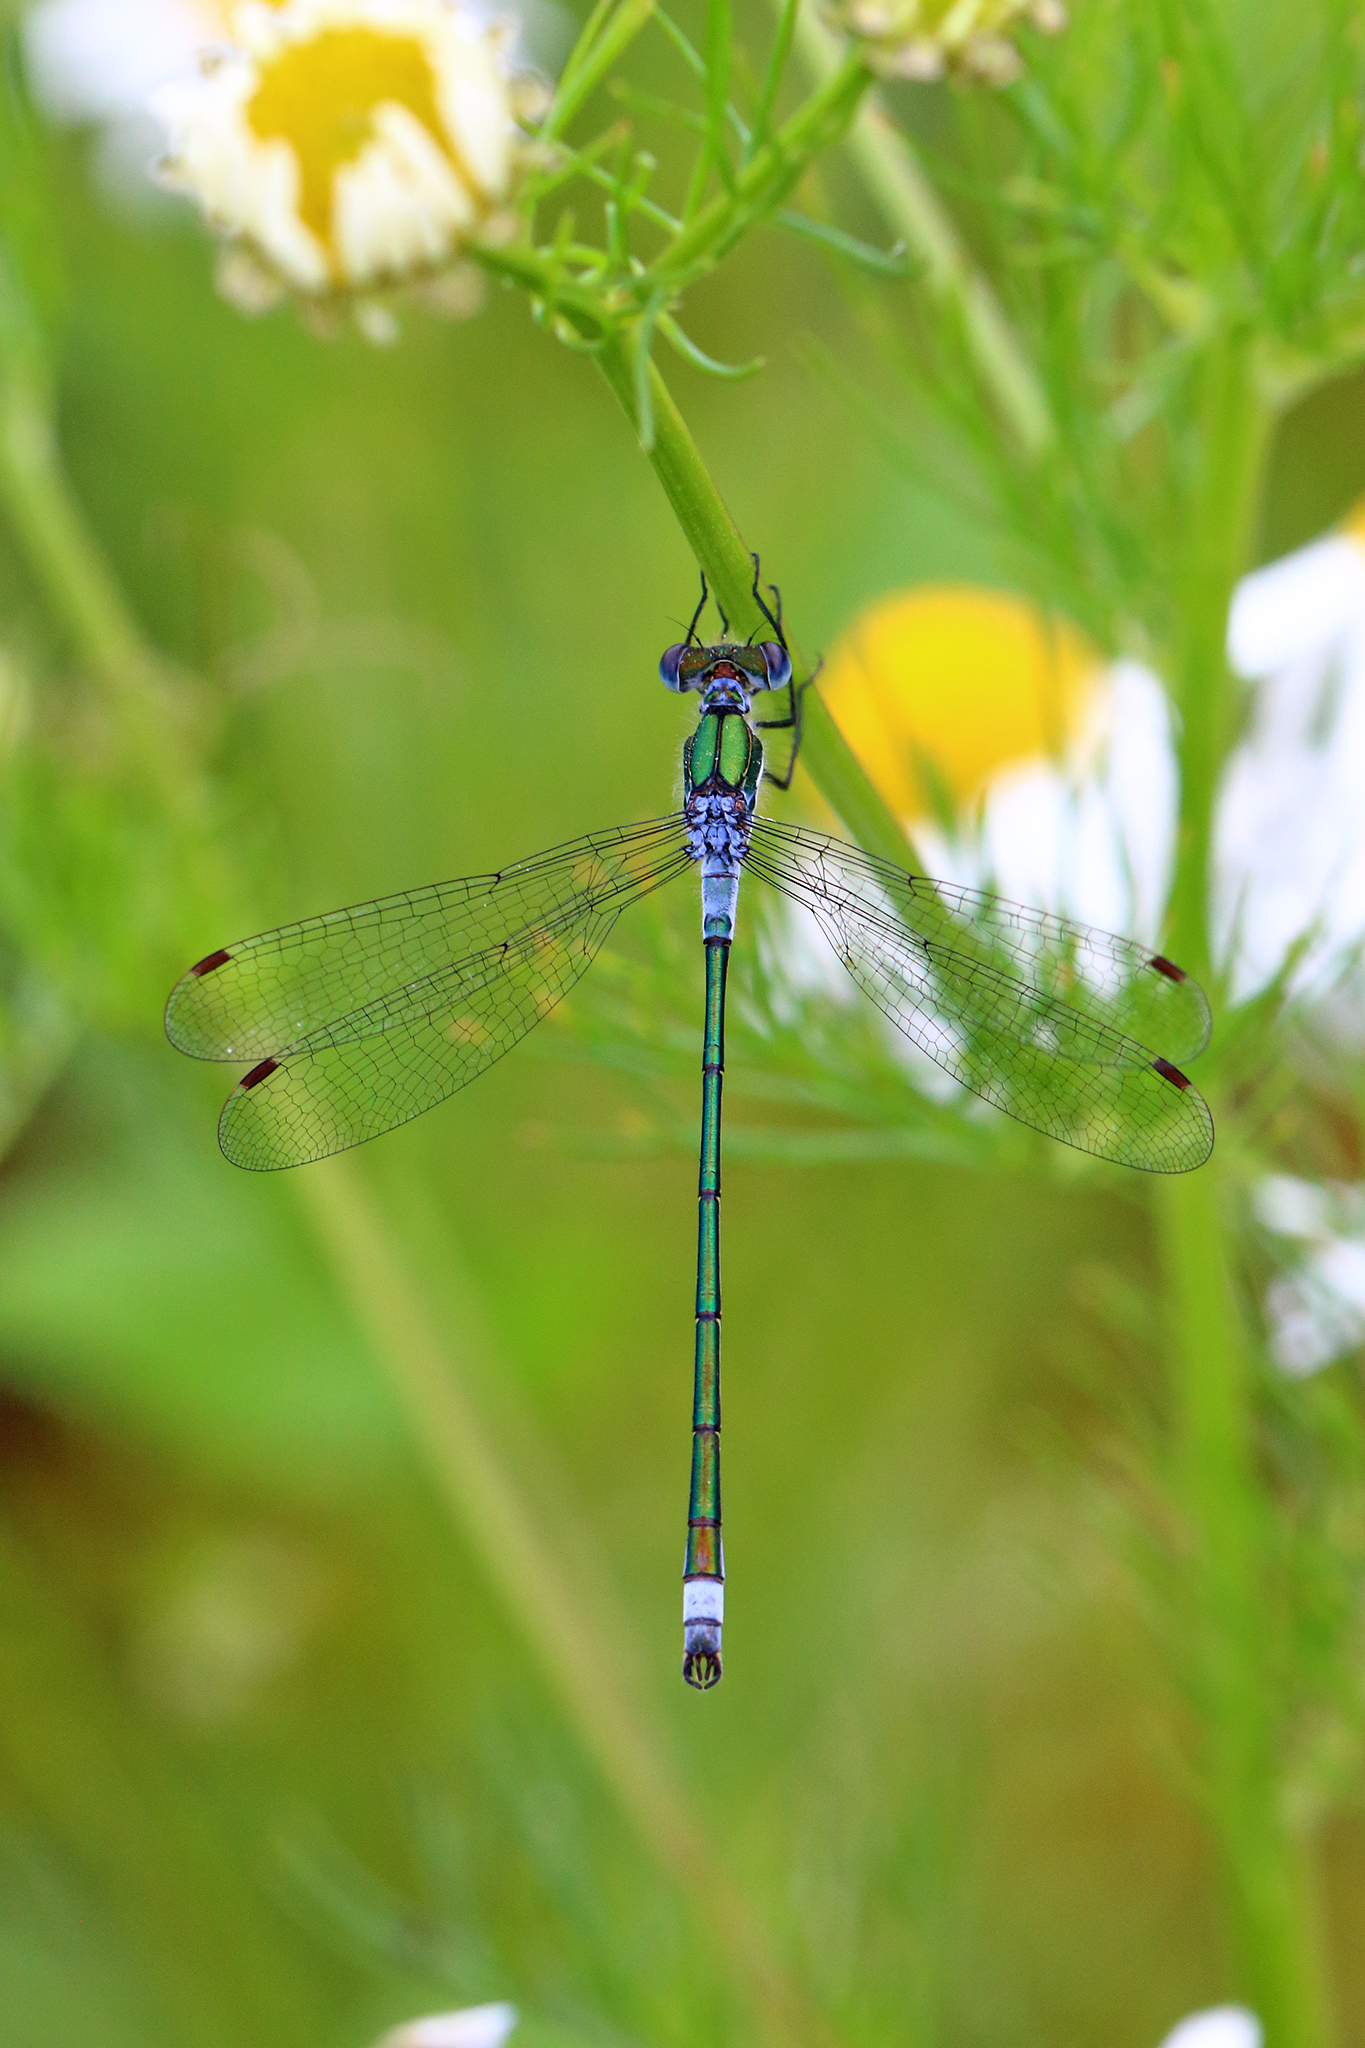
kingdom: Animalia
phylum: Arthropoda
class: Insecta
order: Odonata
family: Lestidae
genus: Lestes
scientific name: Lestes sponsa
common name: Common spreadwing
